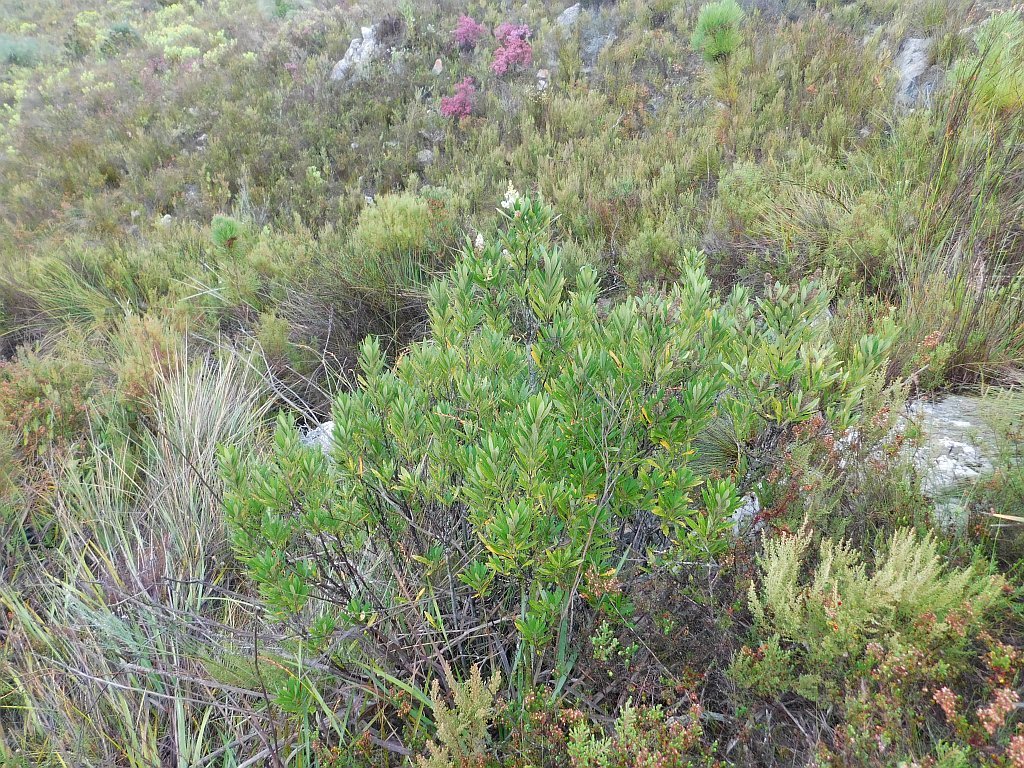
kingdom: Plantae
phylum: Tracheophyta
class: Magnoliopsida
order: Asterales
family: Asteraceae
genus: Brachylaena
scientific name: Brachylaena neriifolia
